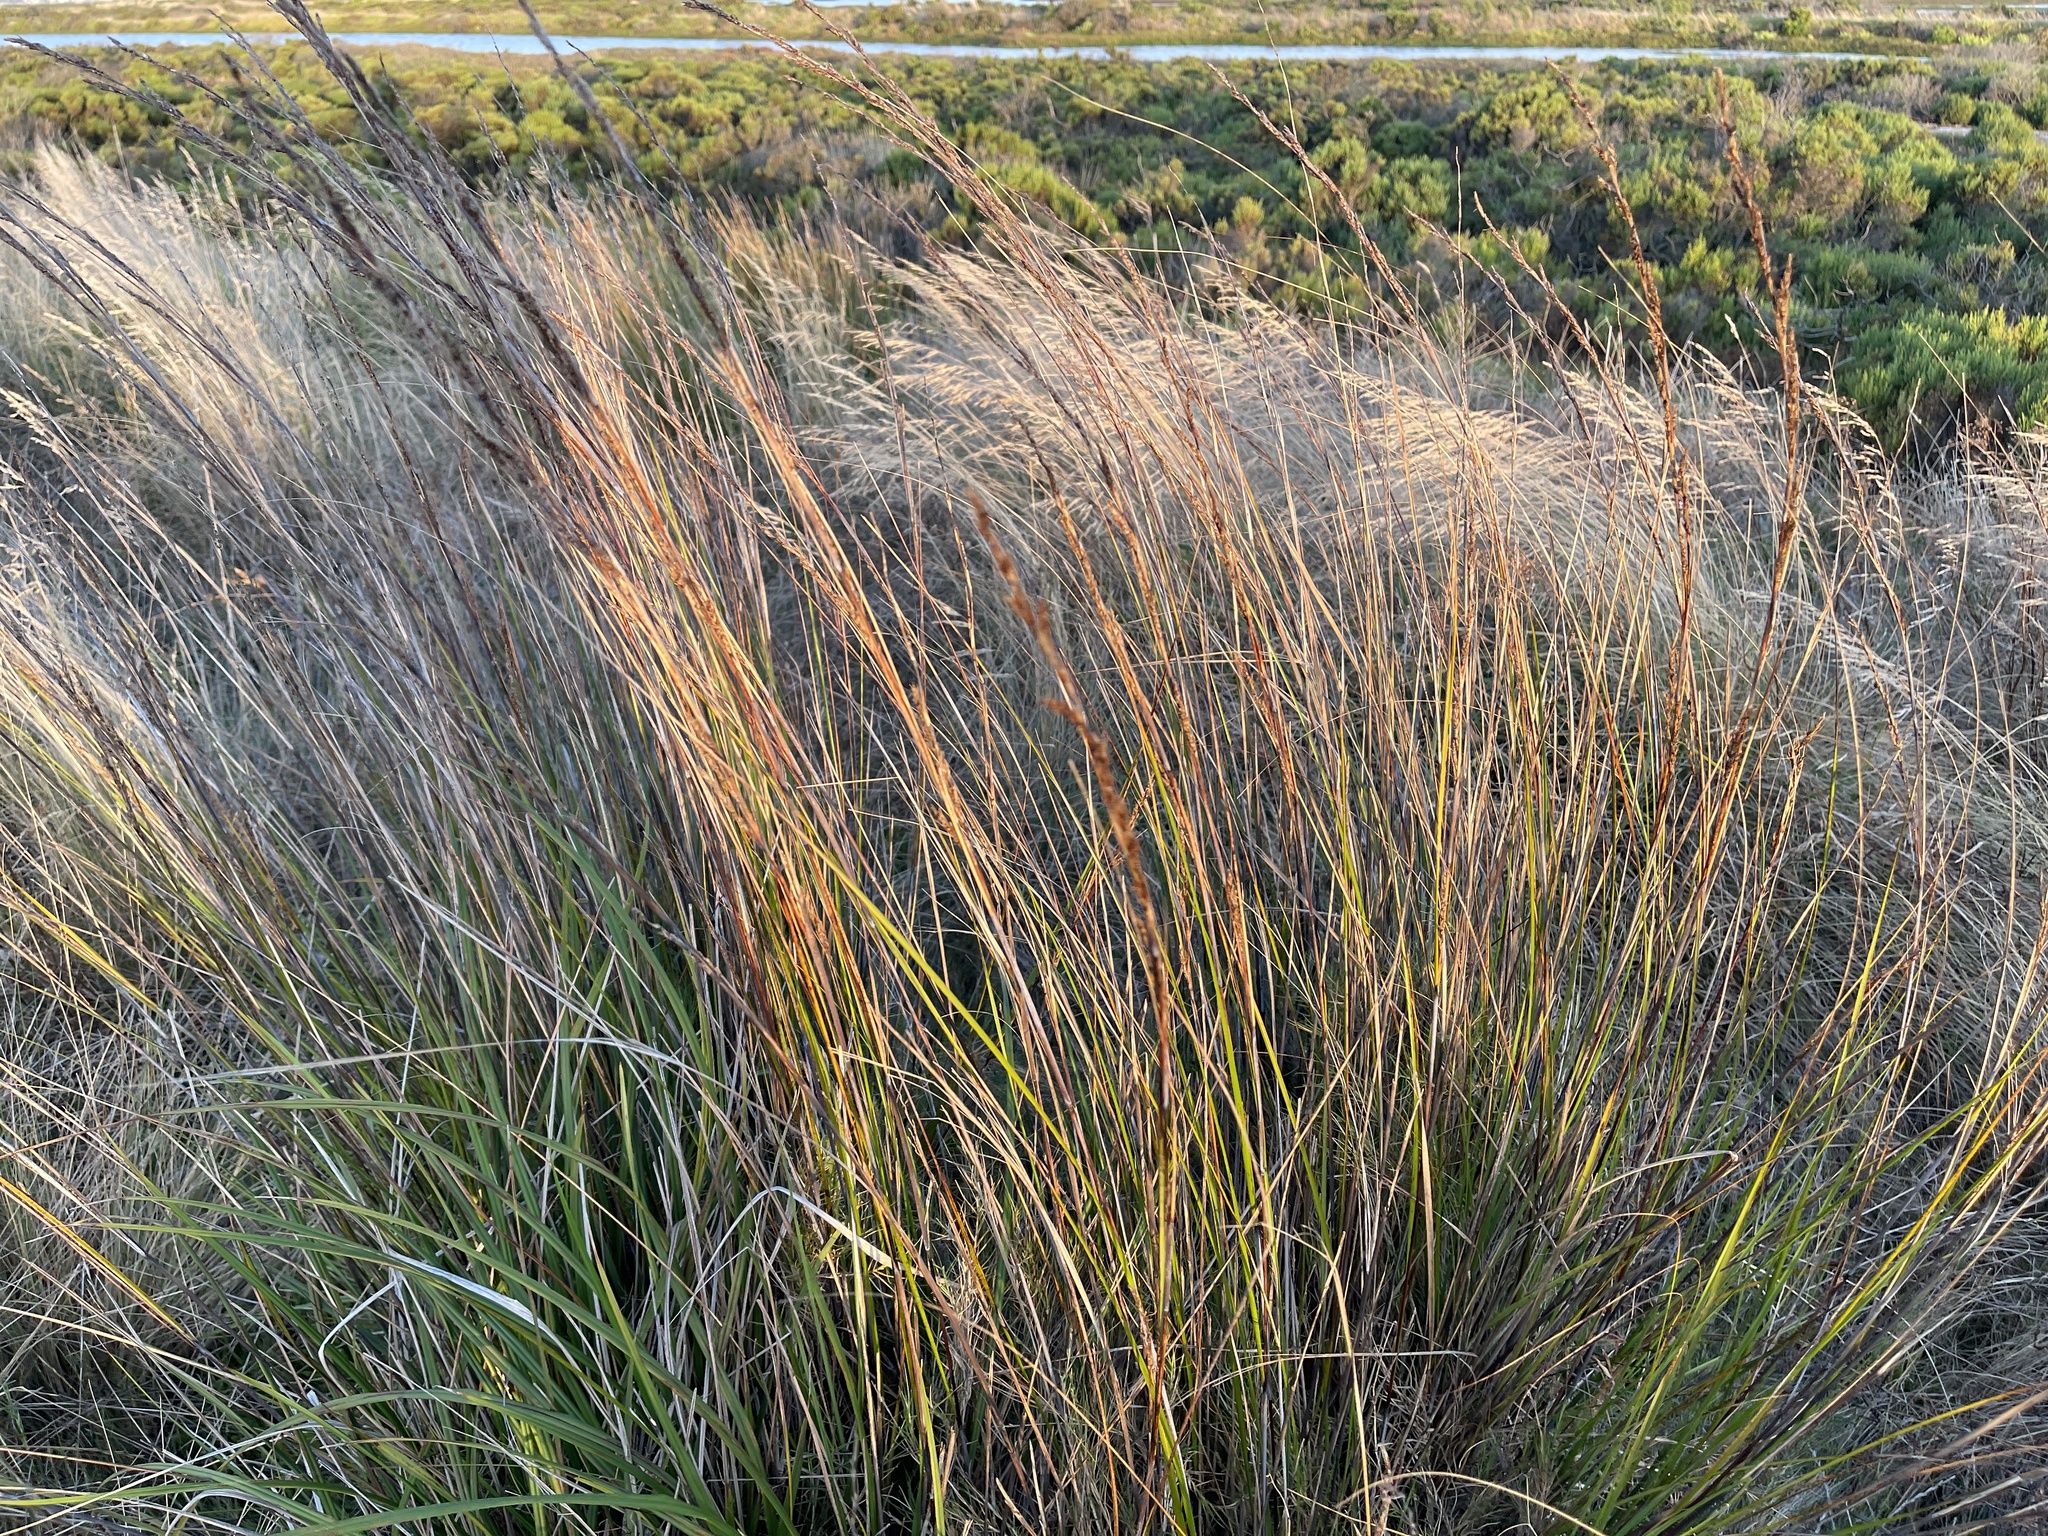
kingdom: Plantae
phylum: Tracheophyta
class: Liliopsida
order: Poales
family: Cyperaceae
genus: Gahnia
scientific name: Gahnia filum
